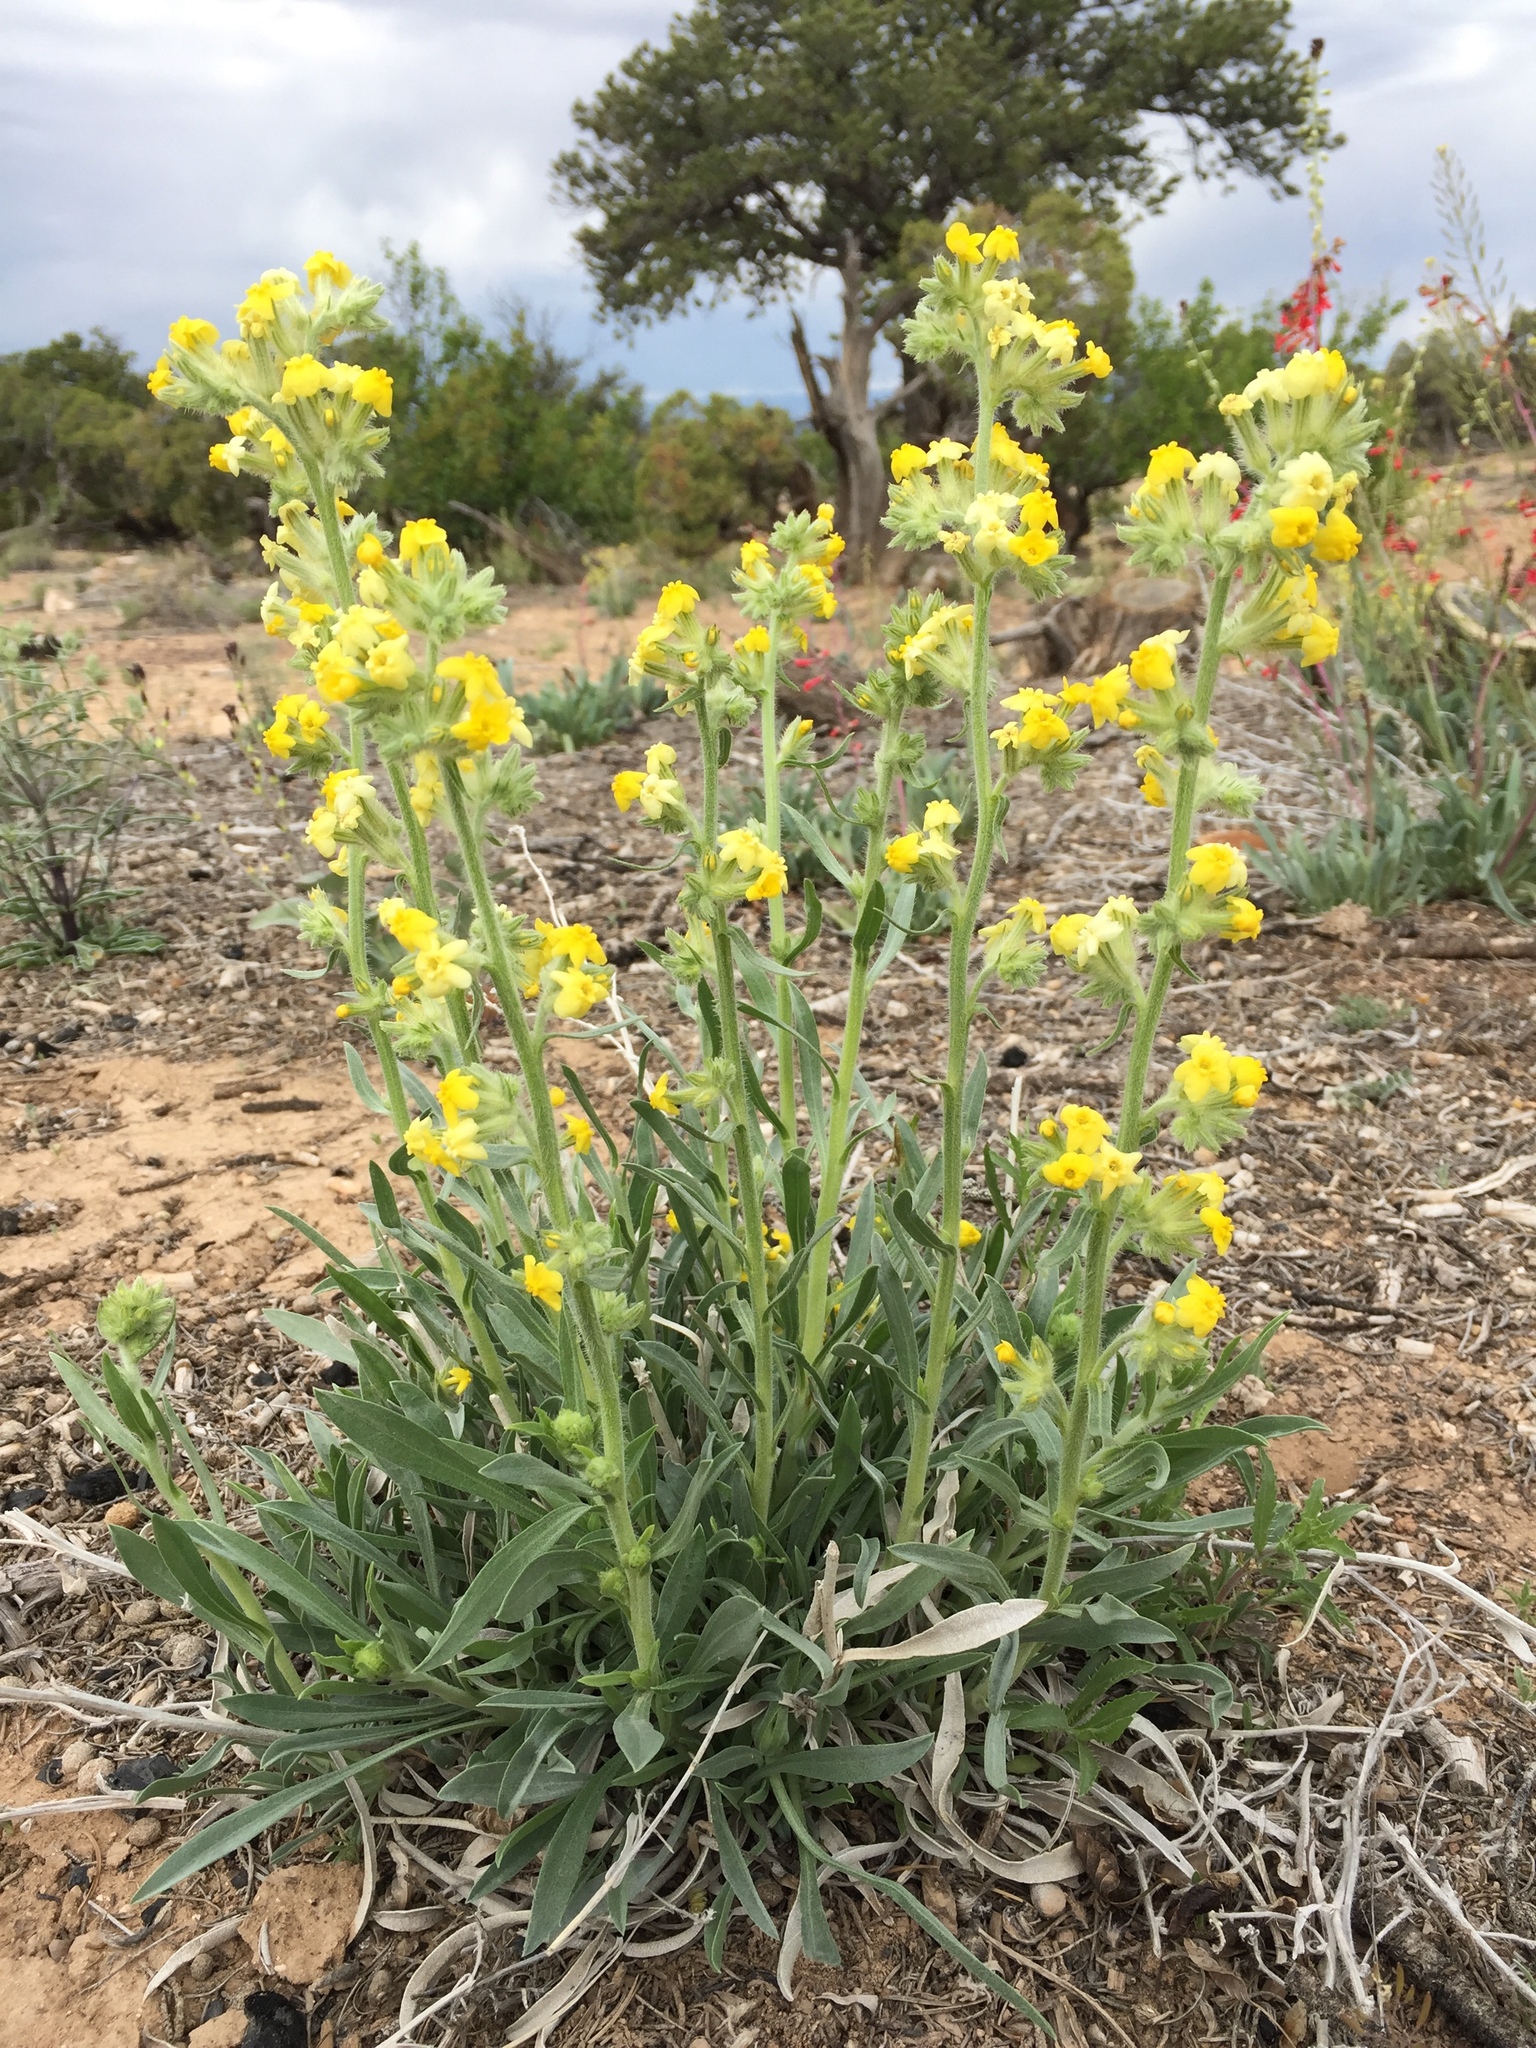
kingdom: Plantae
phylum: Tracheophyta
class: Magnoliopsida
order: Boraginales
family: Boraginaceae
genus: Oreocarya
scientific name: Oreocarya flava
